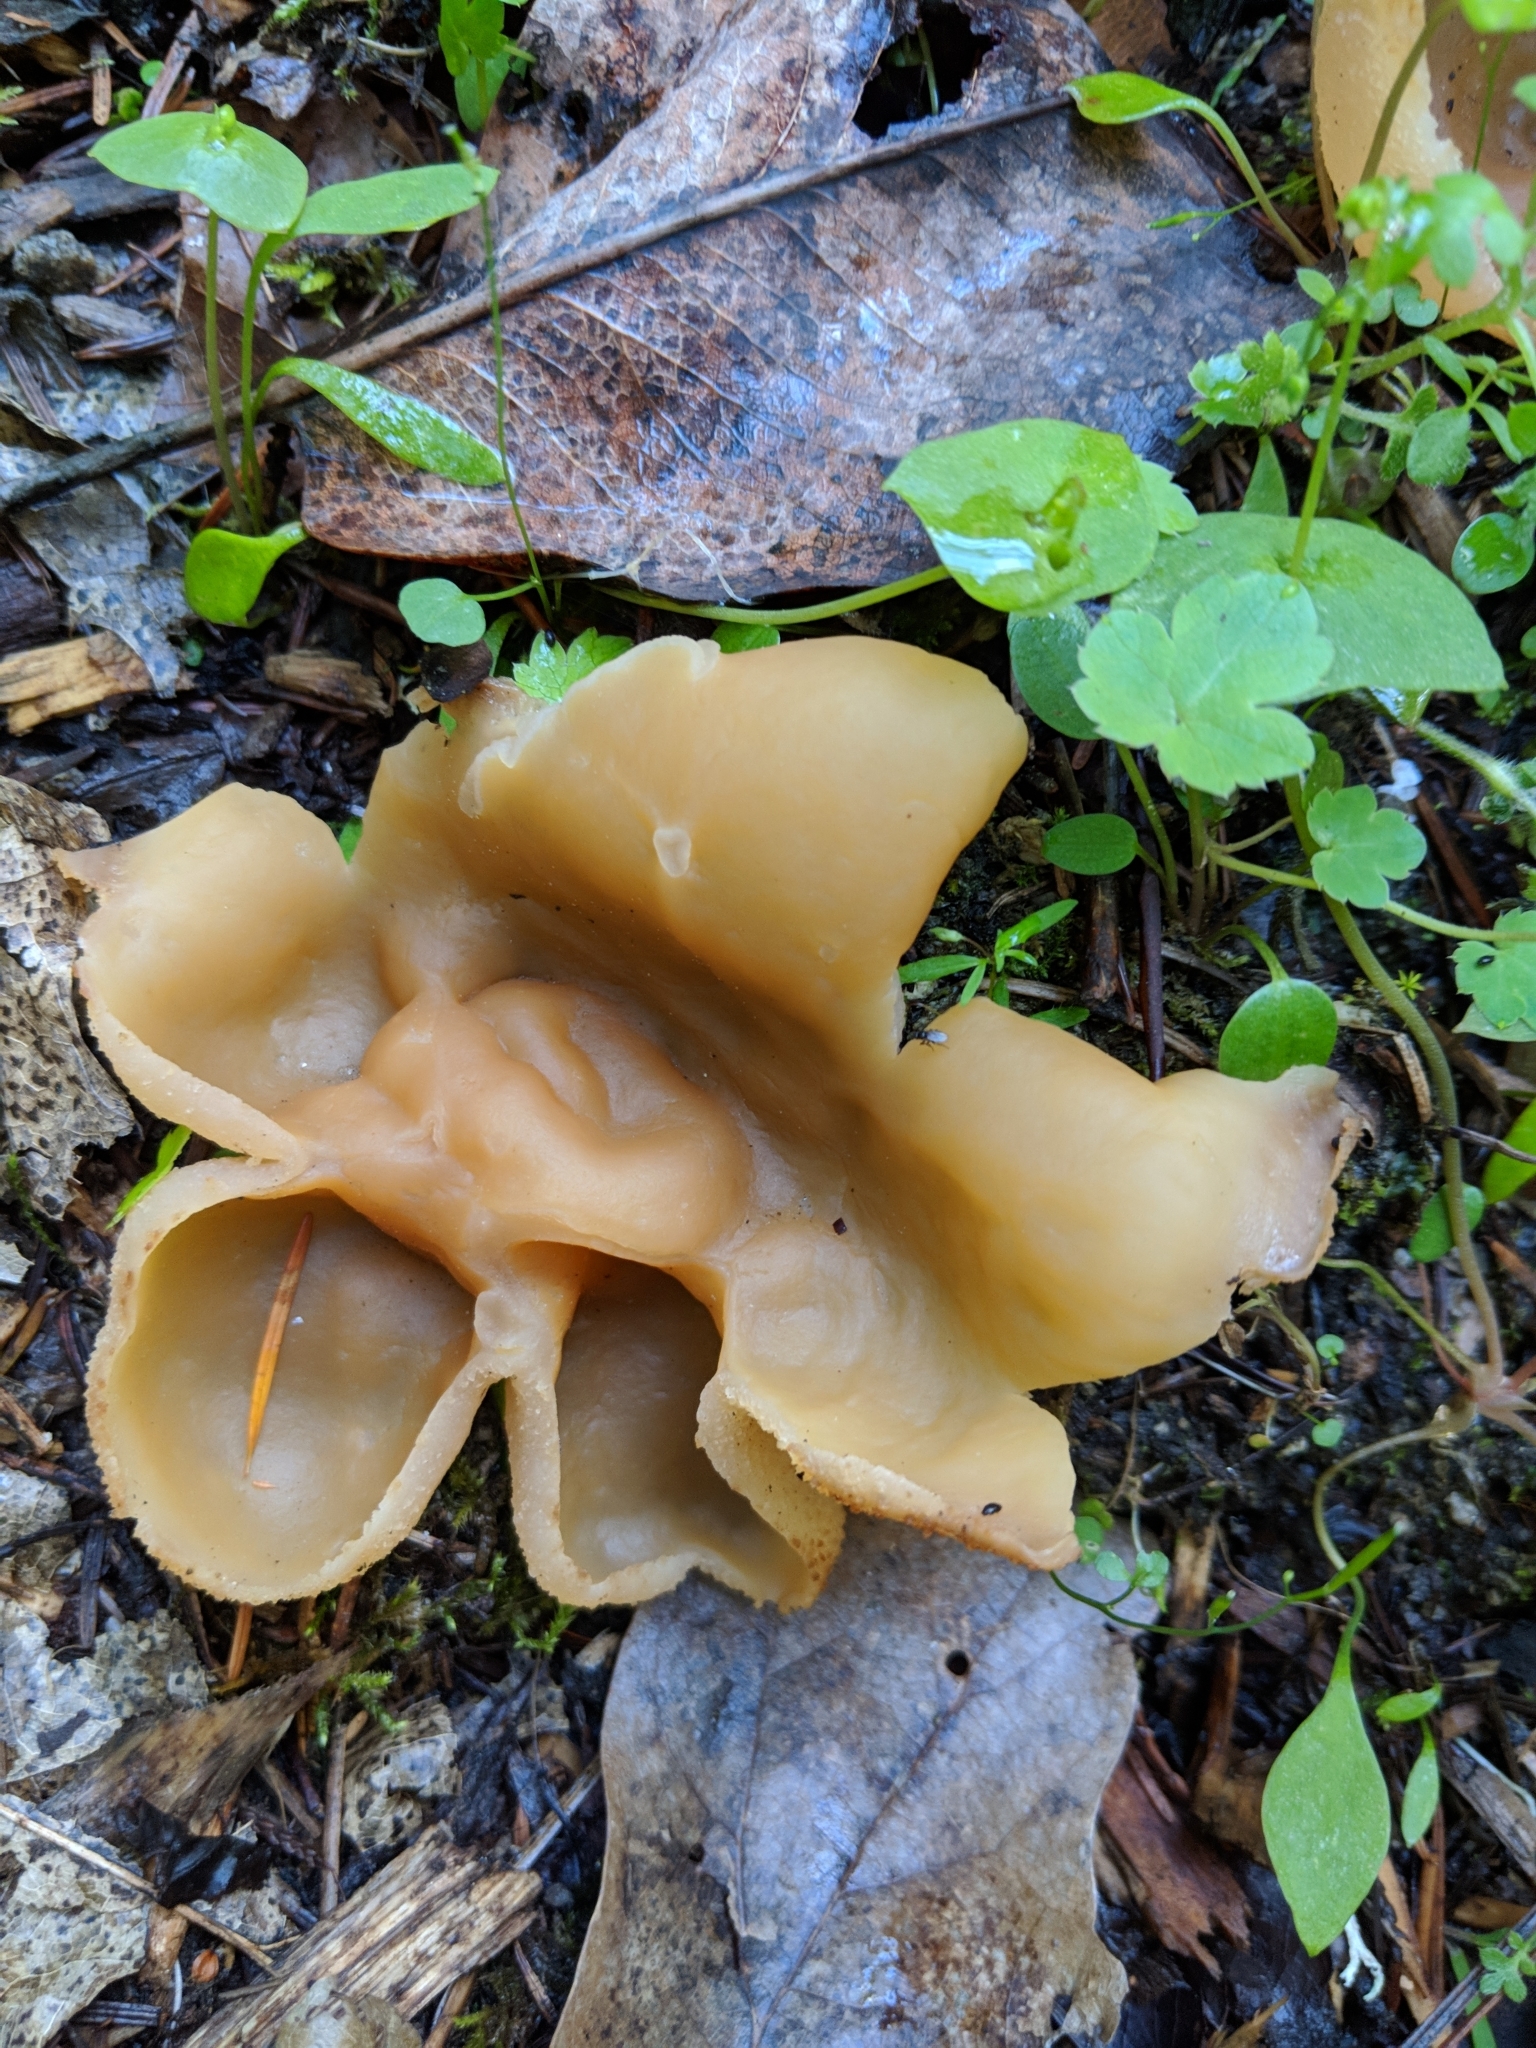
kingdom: Fungi
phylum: Ascomycota
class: Pezizomycetes
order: Pezizales
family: Pezizaceae
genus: Peziza
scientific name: Peziza varia
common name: Layered cup
